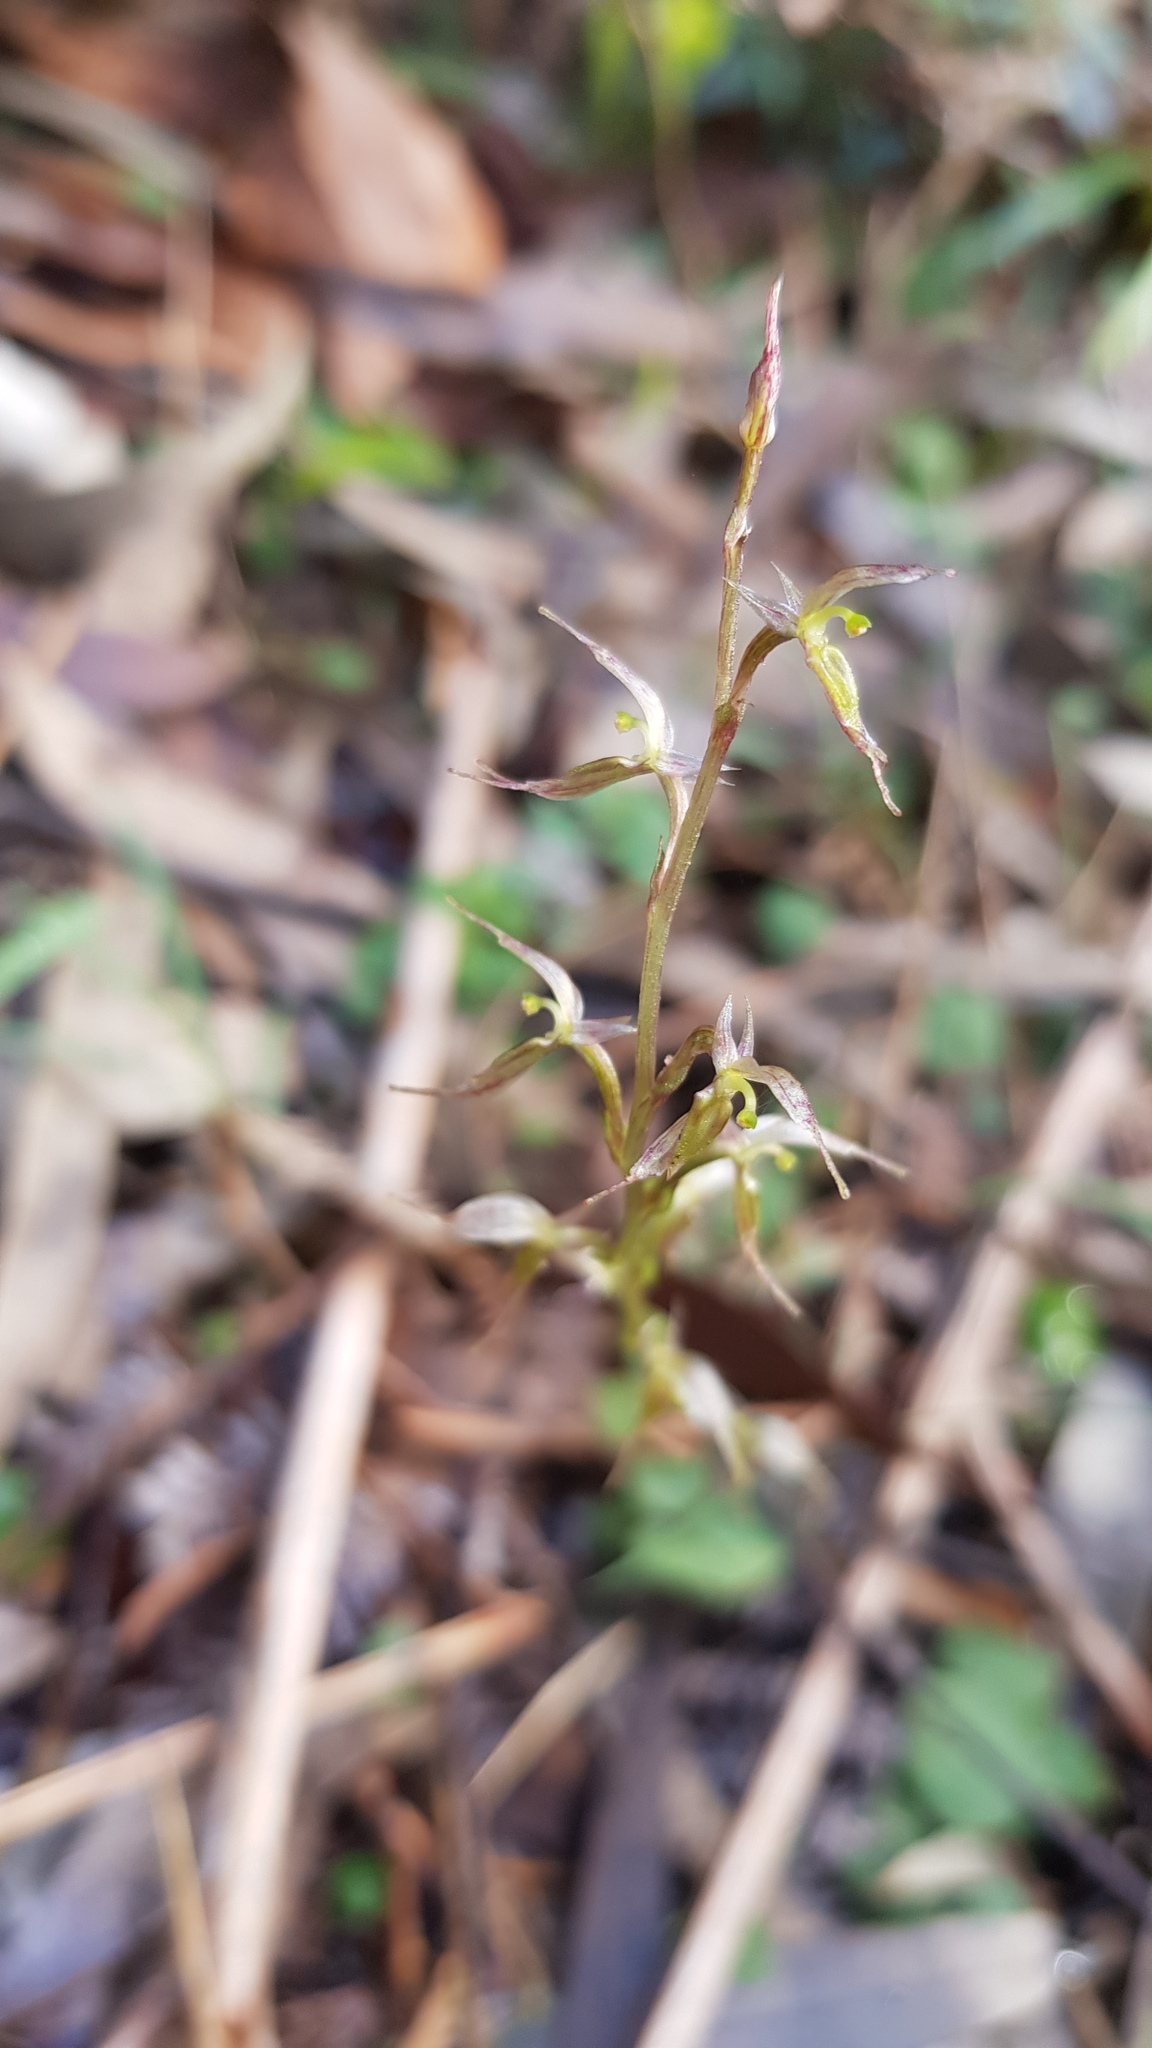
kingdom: Plantae
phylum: Tracheophyta
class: Liliopsida
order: Asparagales
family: Orchidaceae
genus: Acianthus
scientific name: Acianthus pusillus
